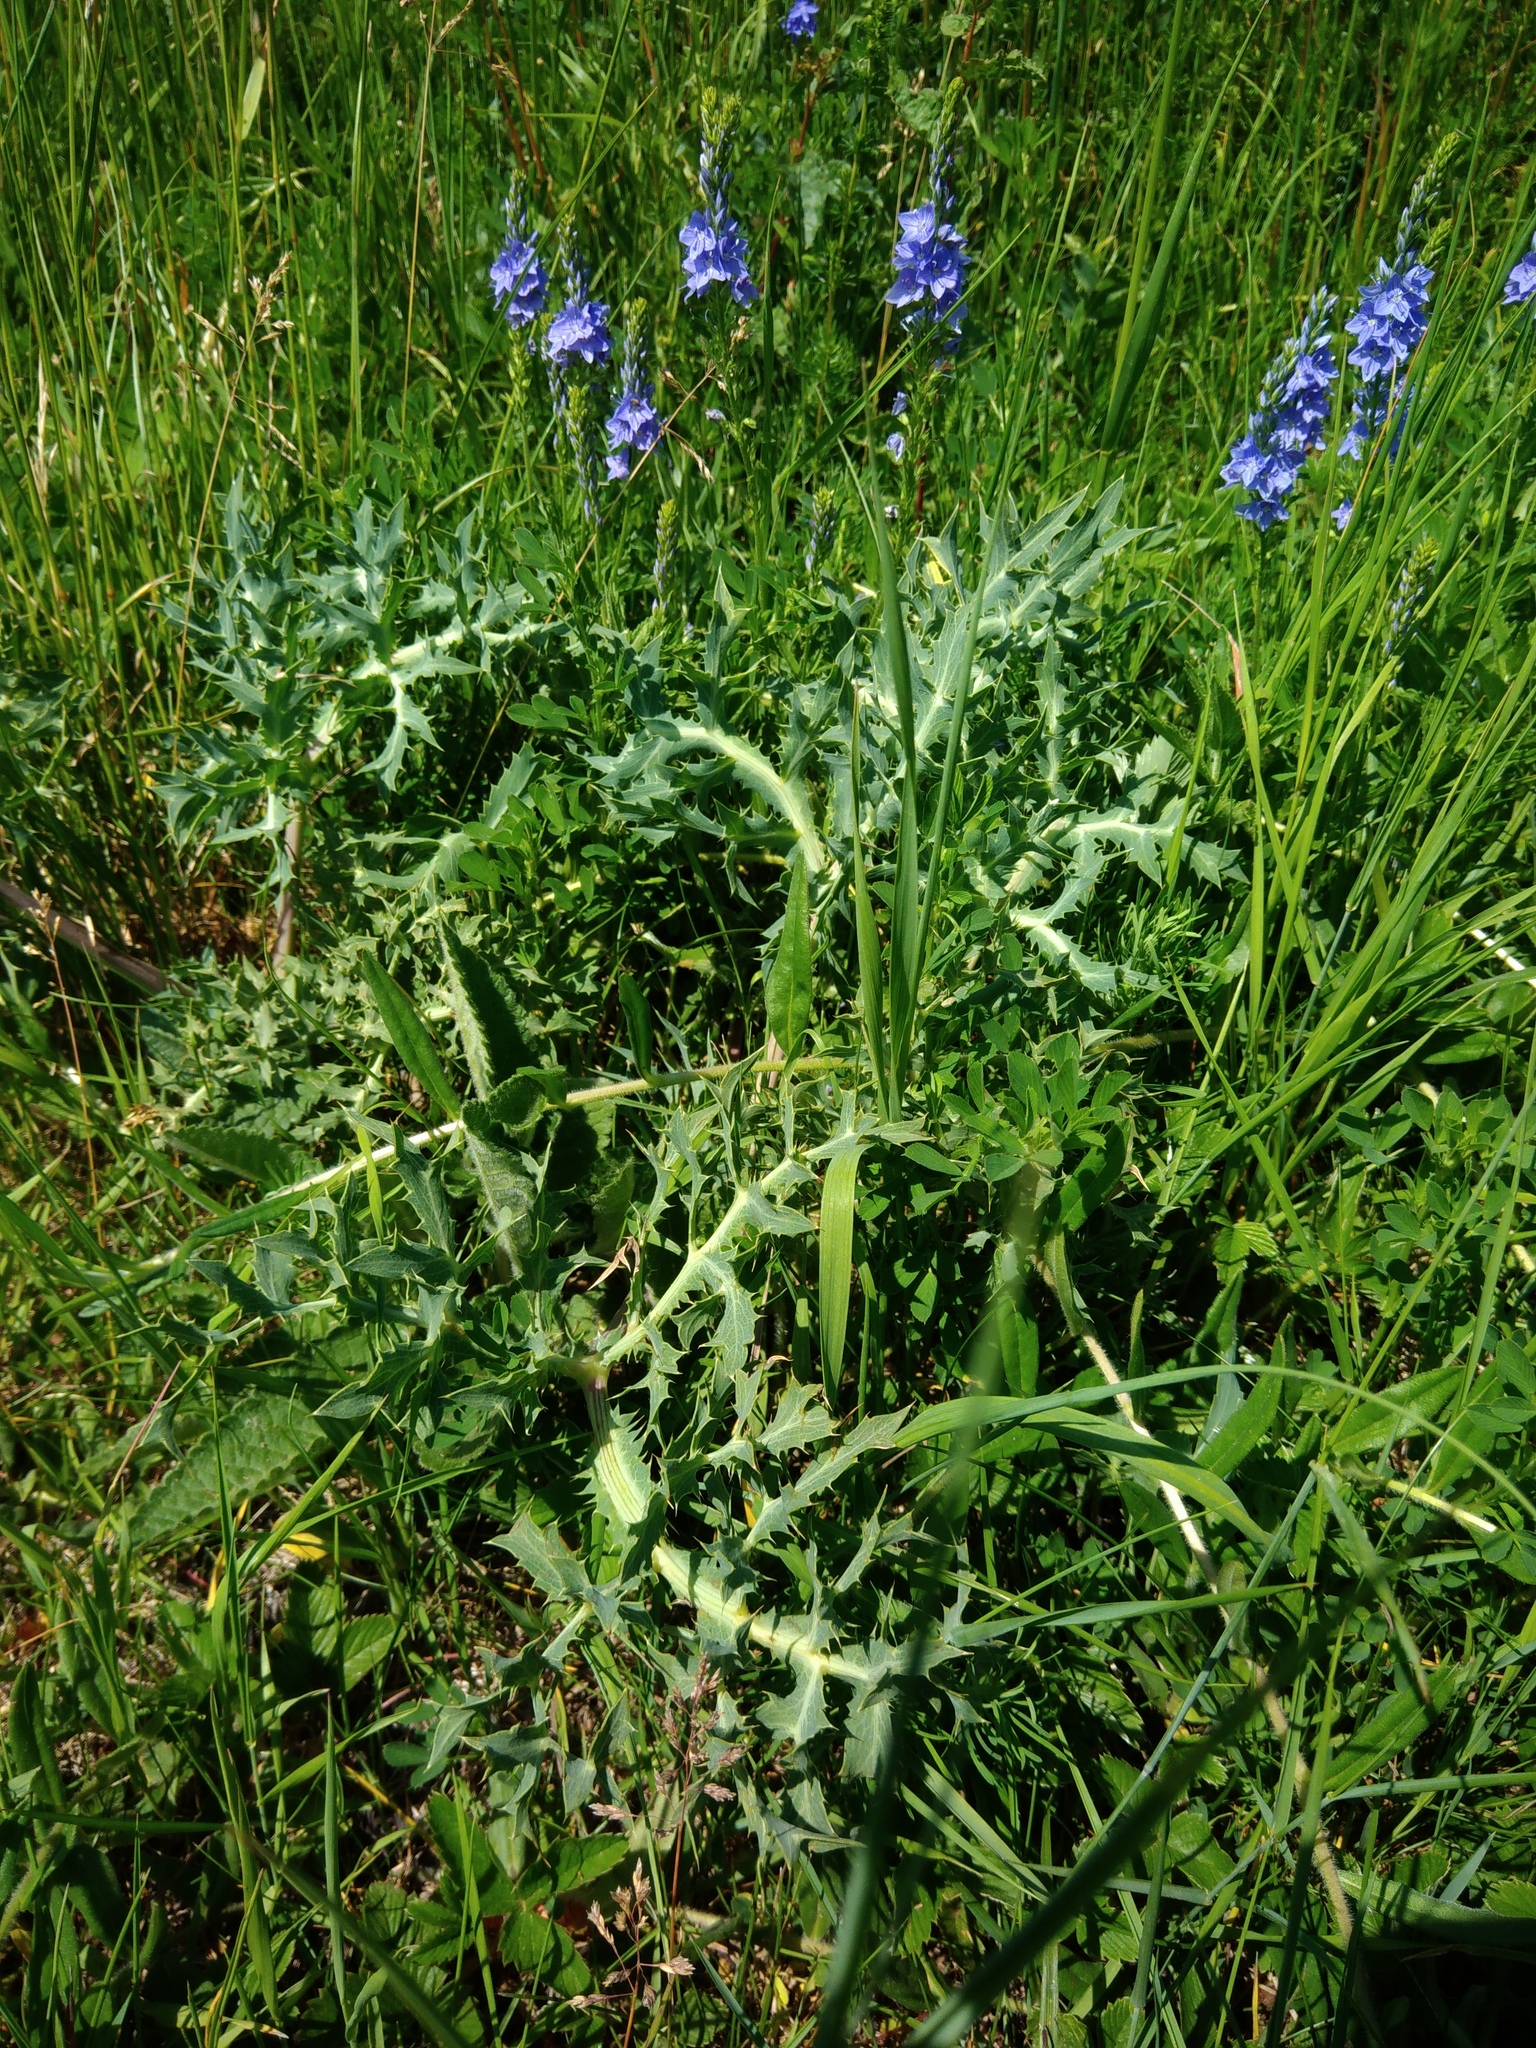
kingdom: Plantae
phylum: Tracheophyta
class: Magnoliopsida
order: Apiales
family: Apiaceae
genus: Eryngium
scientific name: Eryngium campestre
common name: Field eryngo
